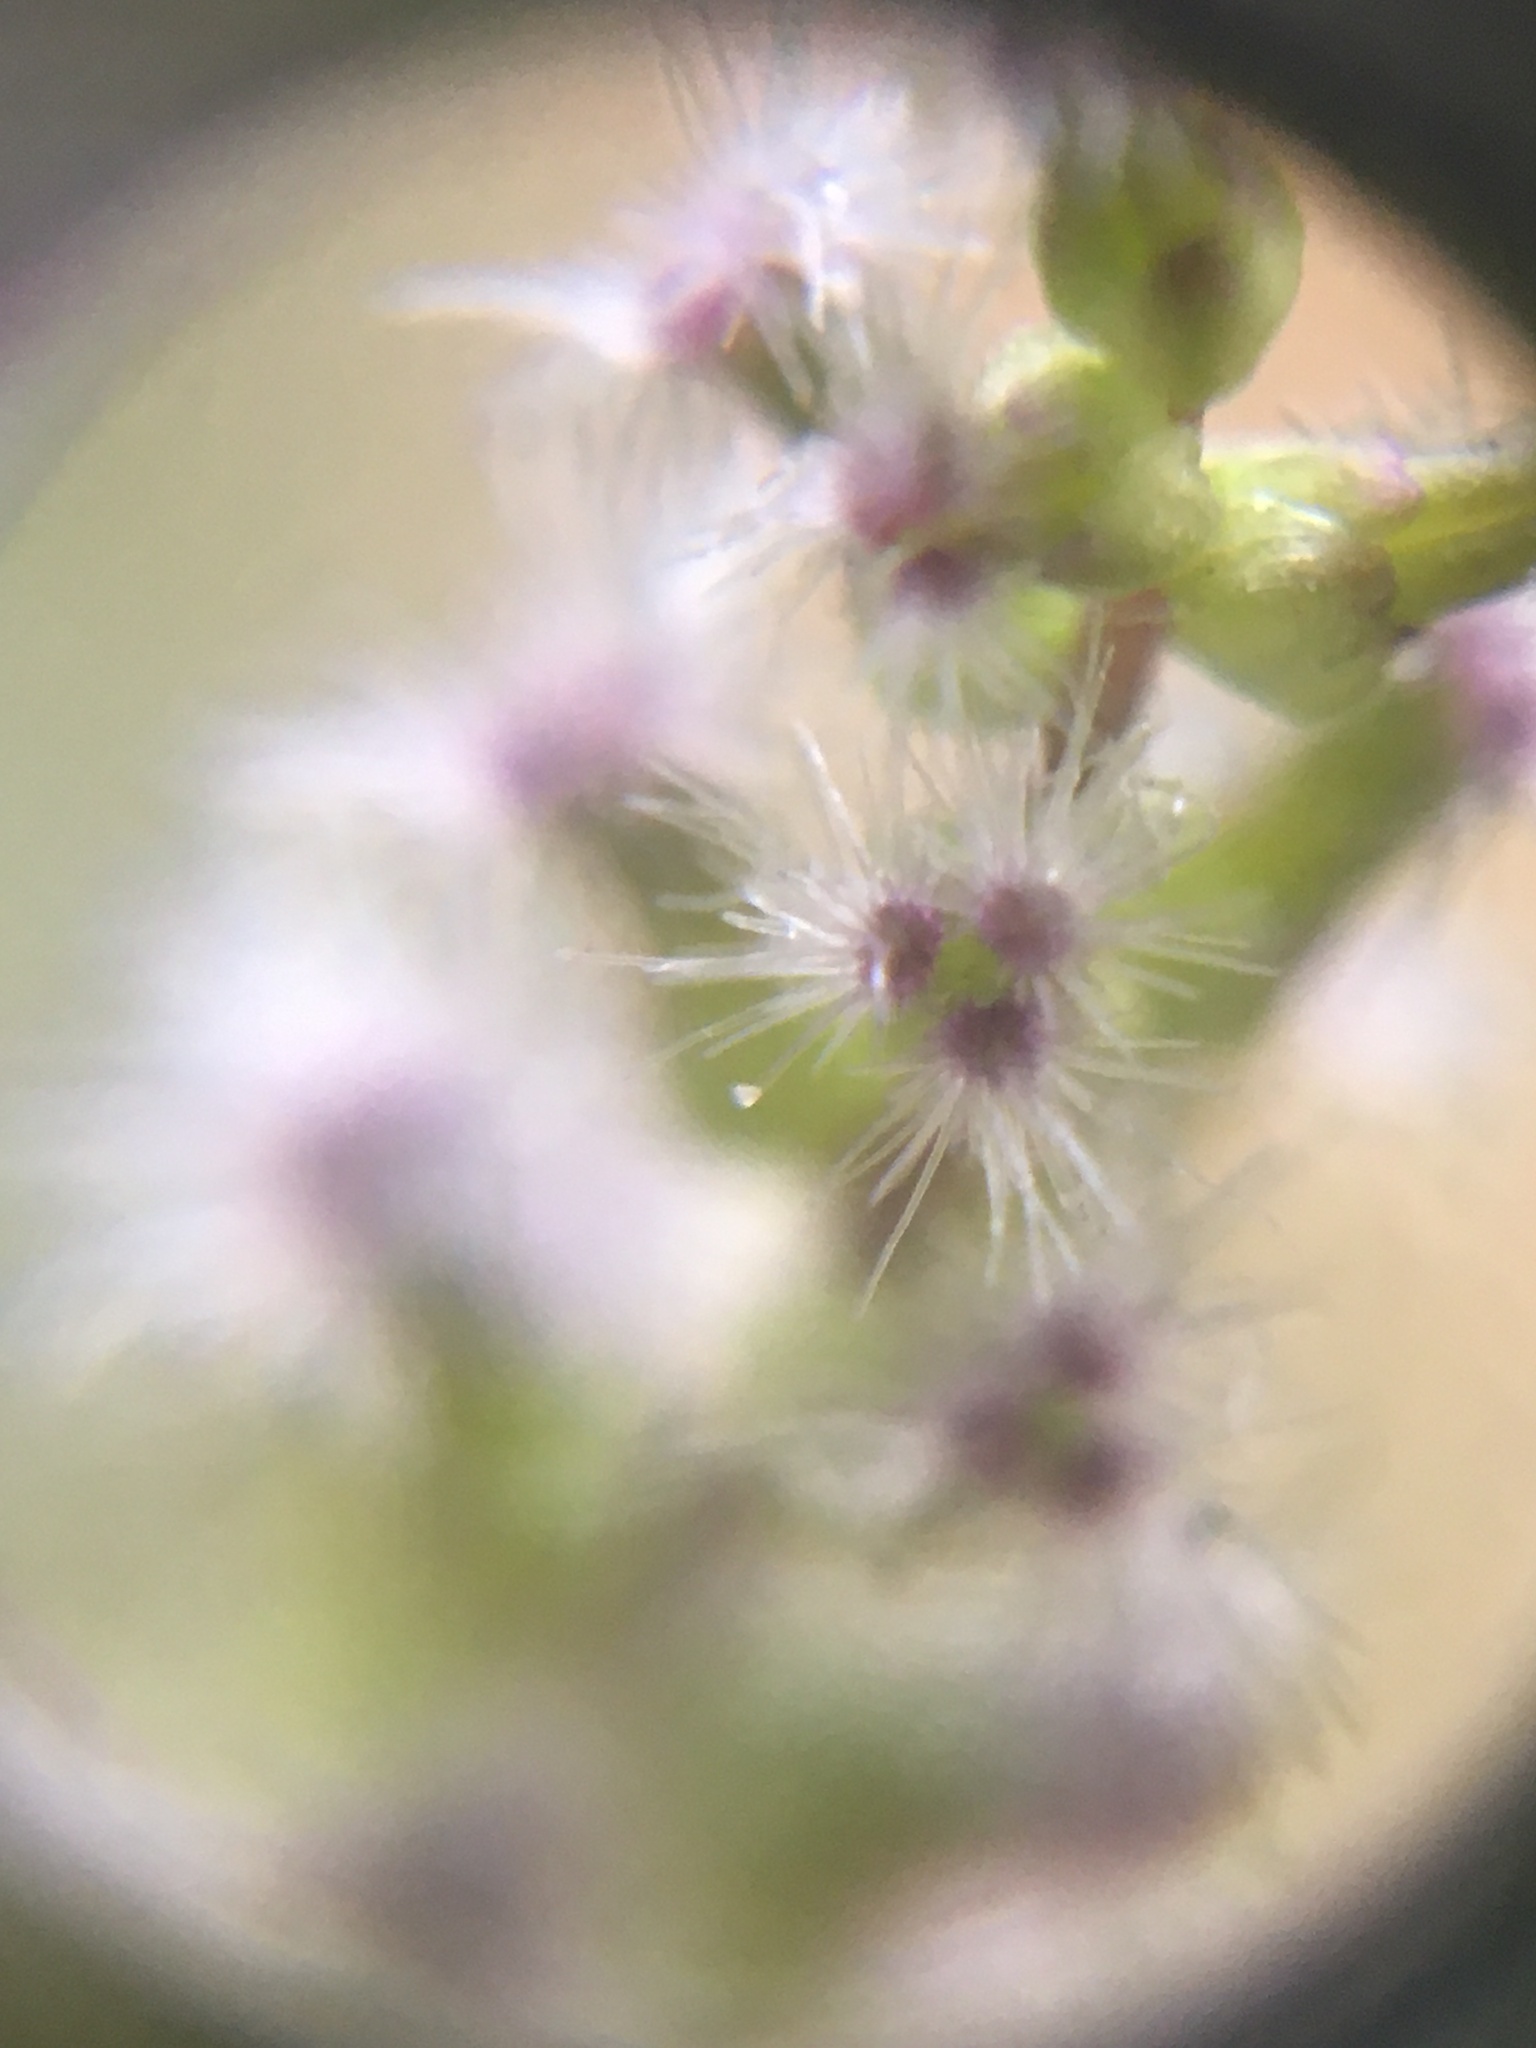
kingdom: Plantae
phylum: Tracheophyta
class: Liliopsida
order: Alismatales
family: Juncaginaceae
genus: Triglochin
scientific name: Triglochin bulbosa
